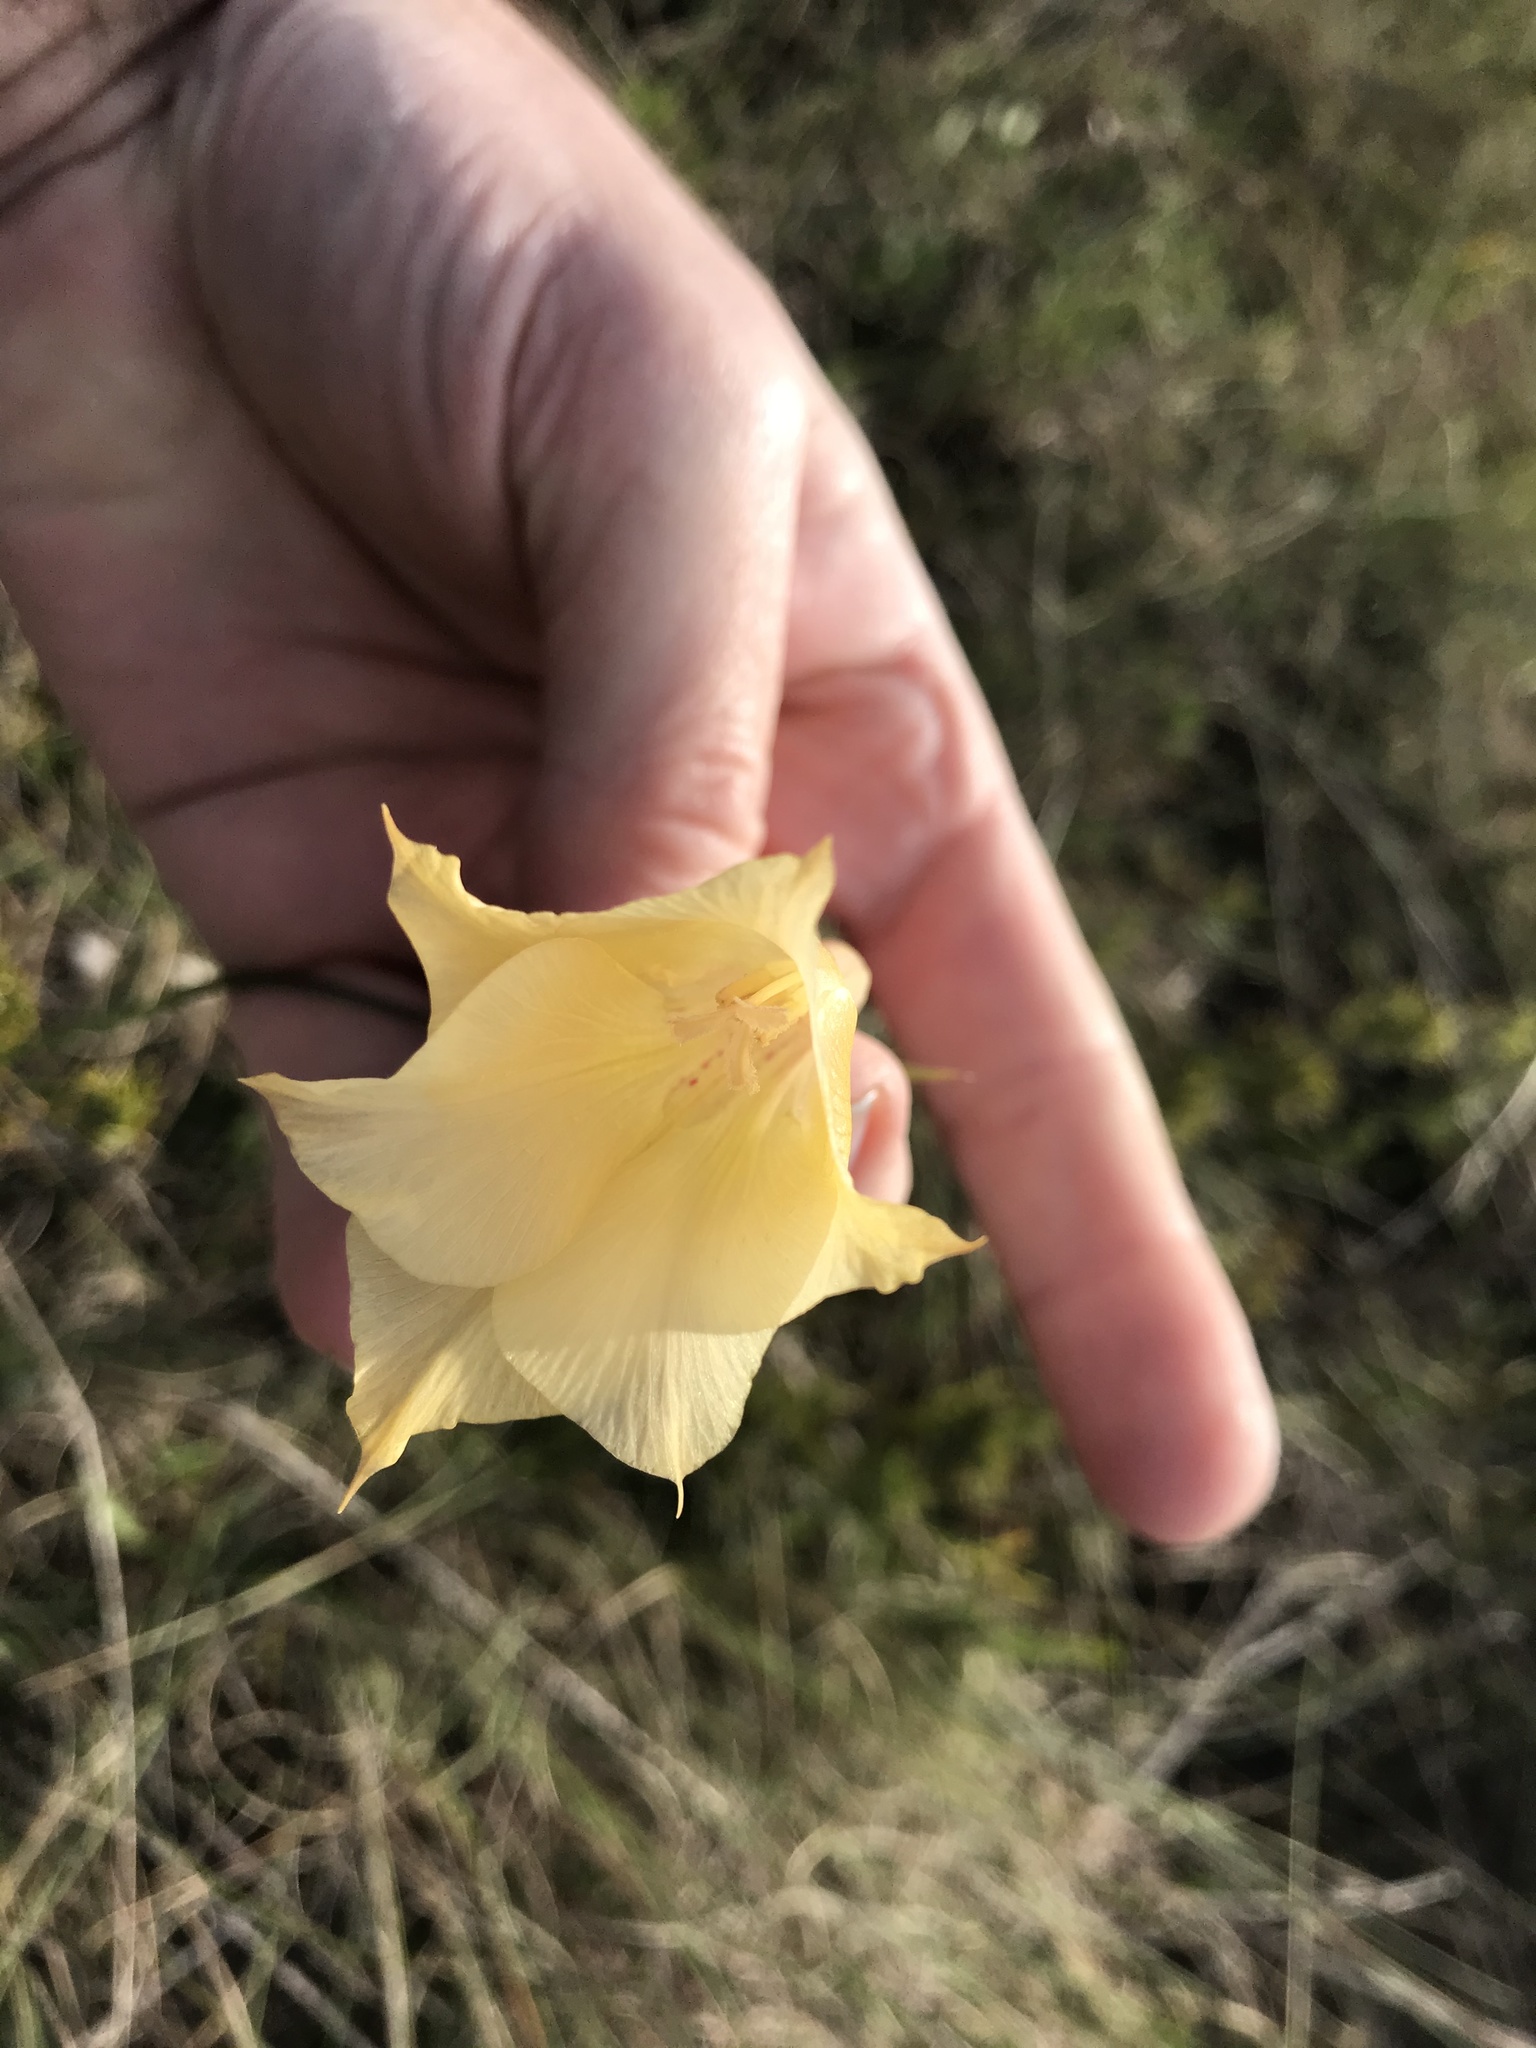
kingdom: Plantae
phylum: Tracheophyta
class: Liliopsida
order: Asparagales
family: Iridaceae
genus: Gladiolus
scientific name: Gladiolus albens
